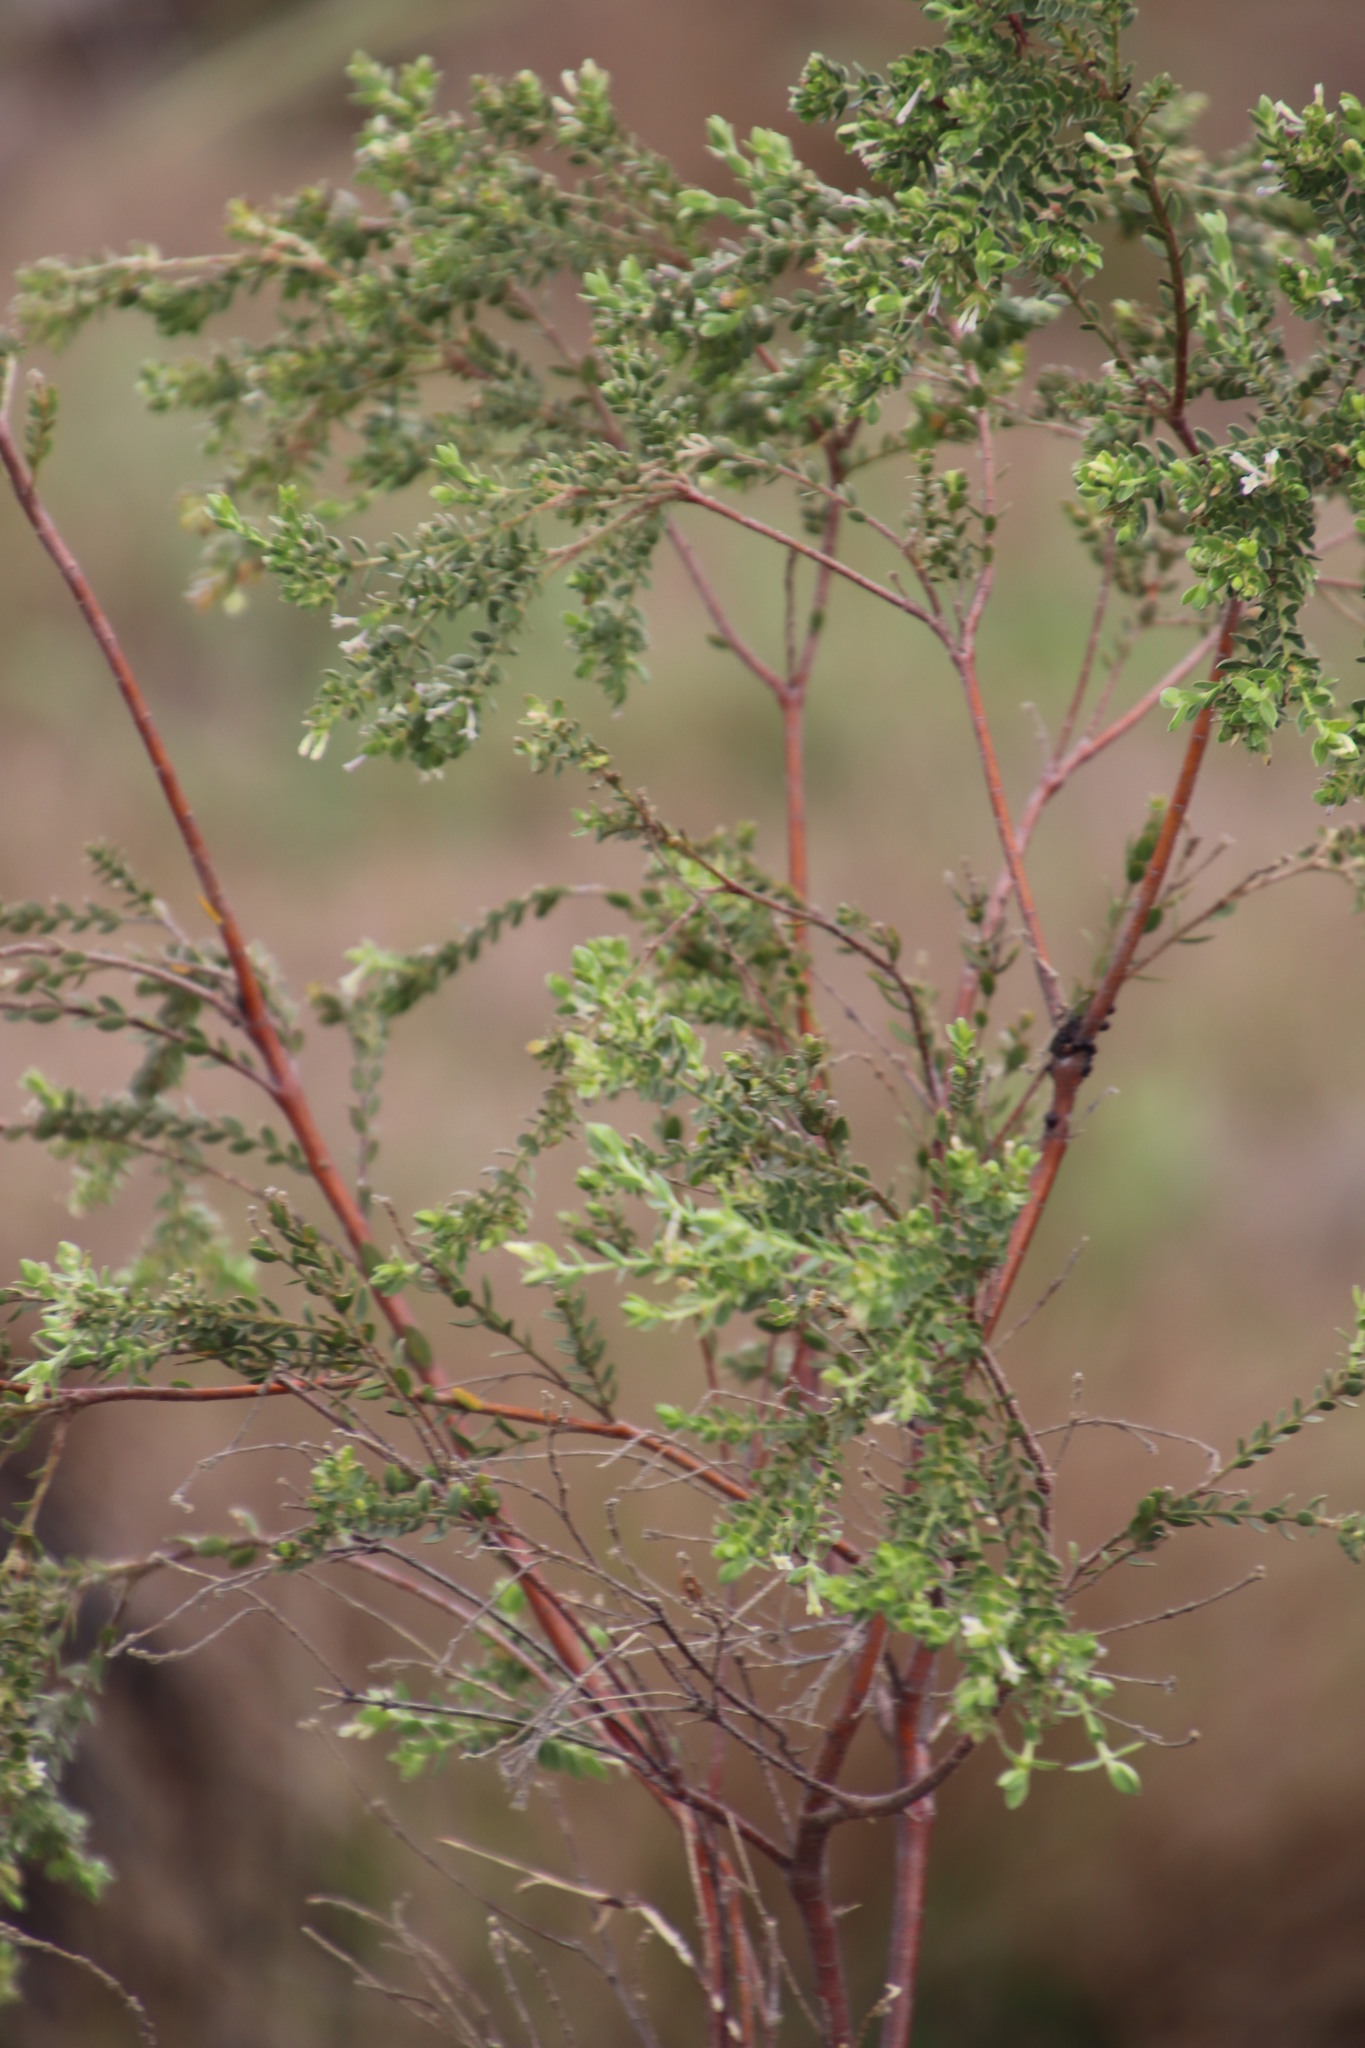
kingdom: Plantae
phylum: Tracheophyta
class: Magnoliopsida
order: Malvales
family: Thymelaeaceae
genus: Gnidia
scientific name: Gnidia sericea
